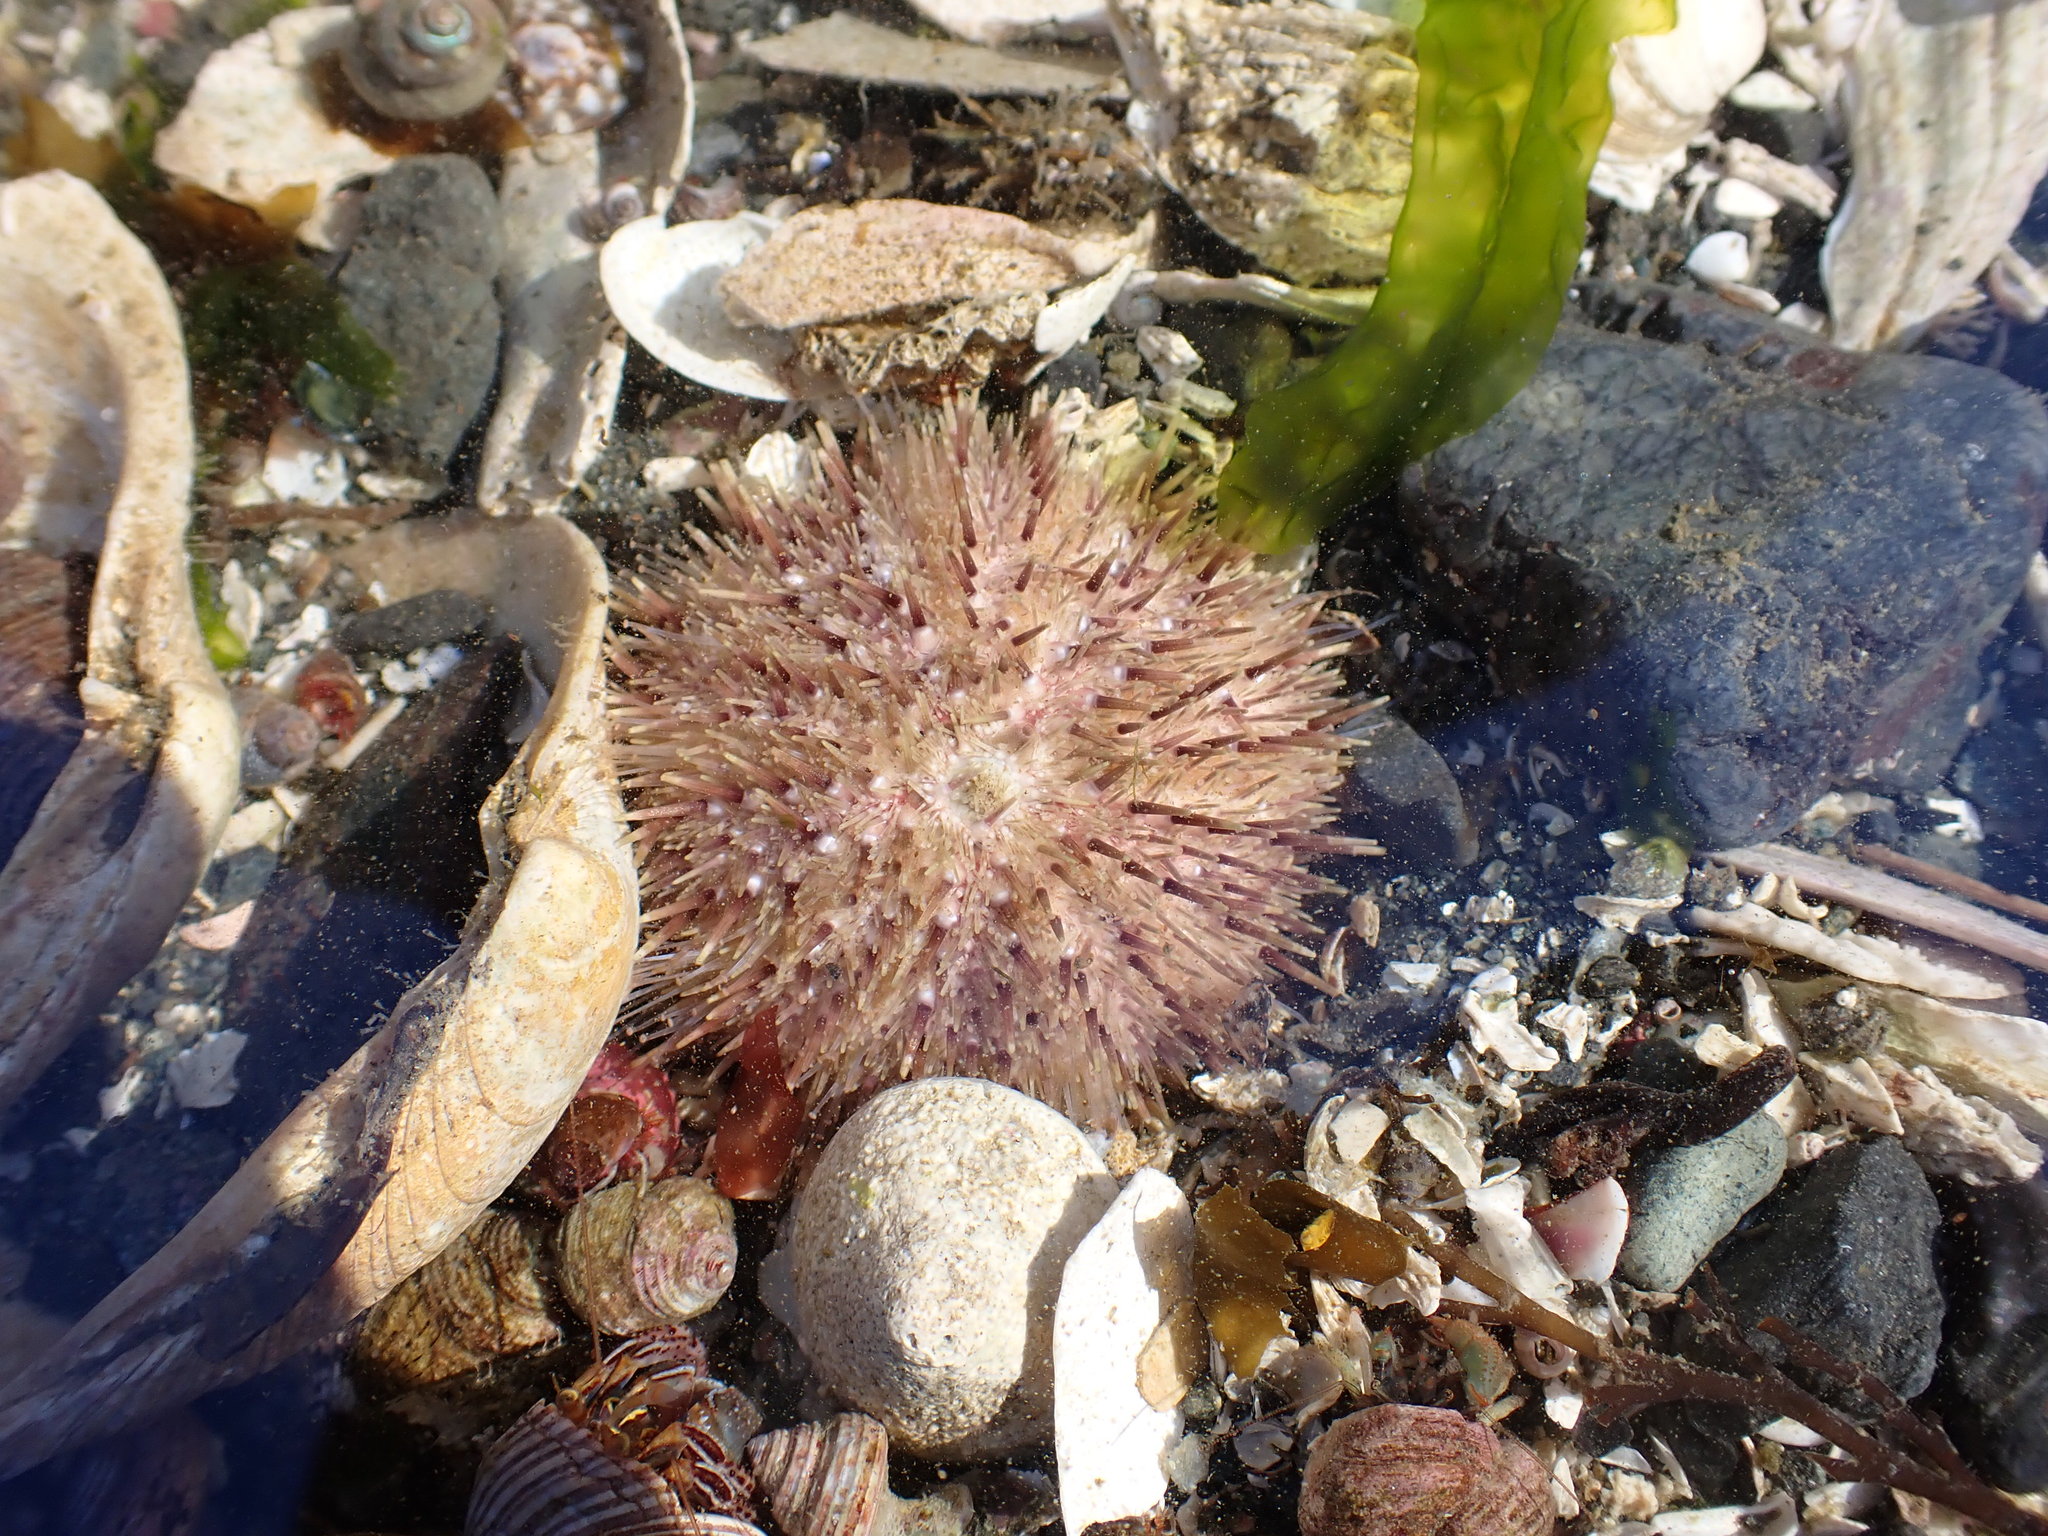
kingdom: Animalia
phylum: Echinodermata
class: Echinoidea
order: Camarodonta
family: Strongylocentrotidae
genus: Strongylocentrotus
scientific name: Strongylocentrotus droebachiensis
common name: Northern sea urchin
